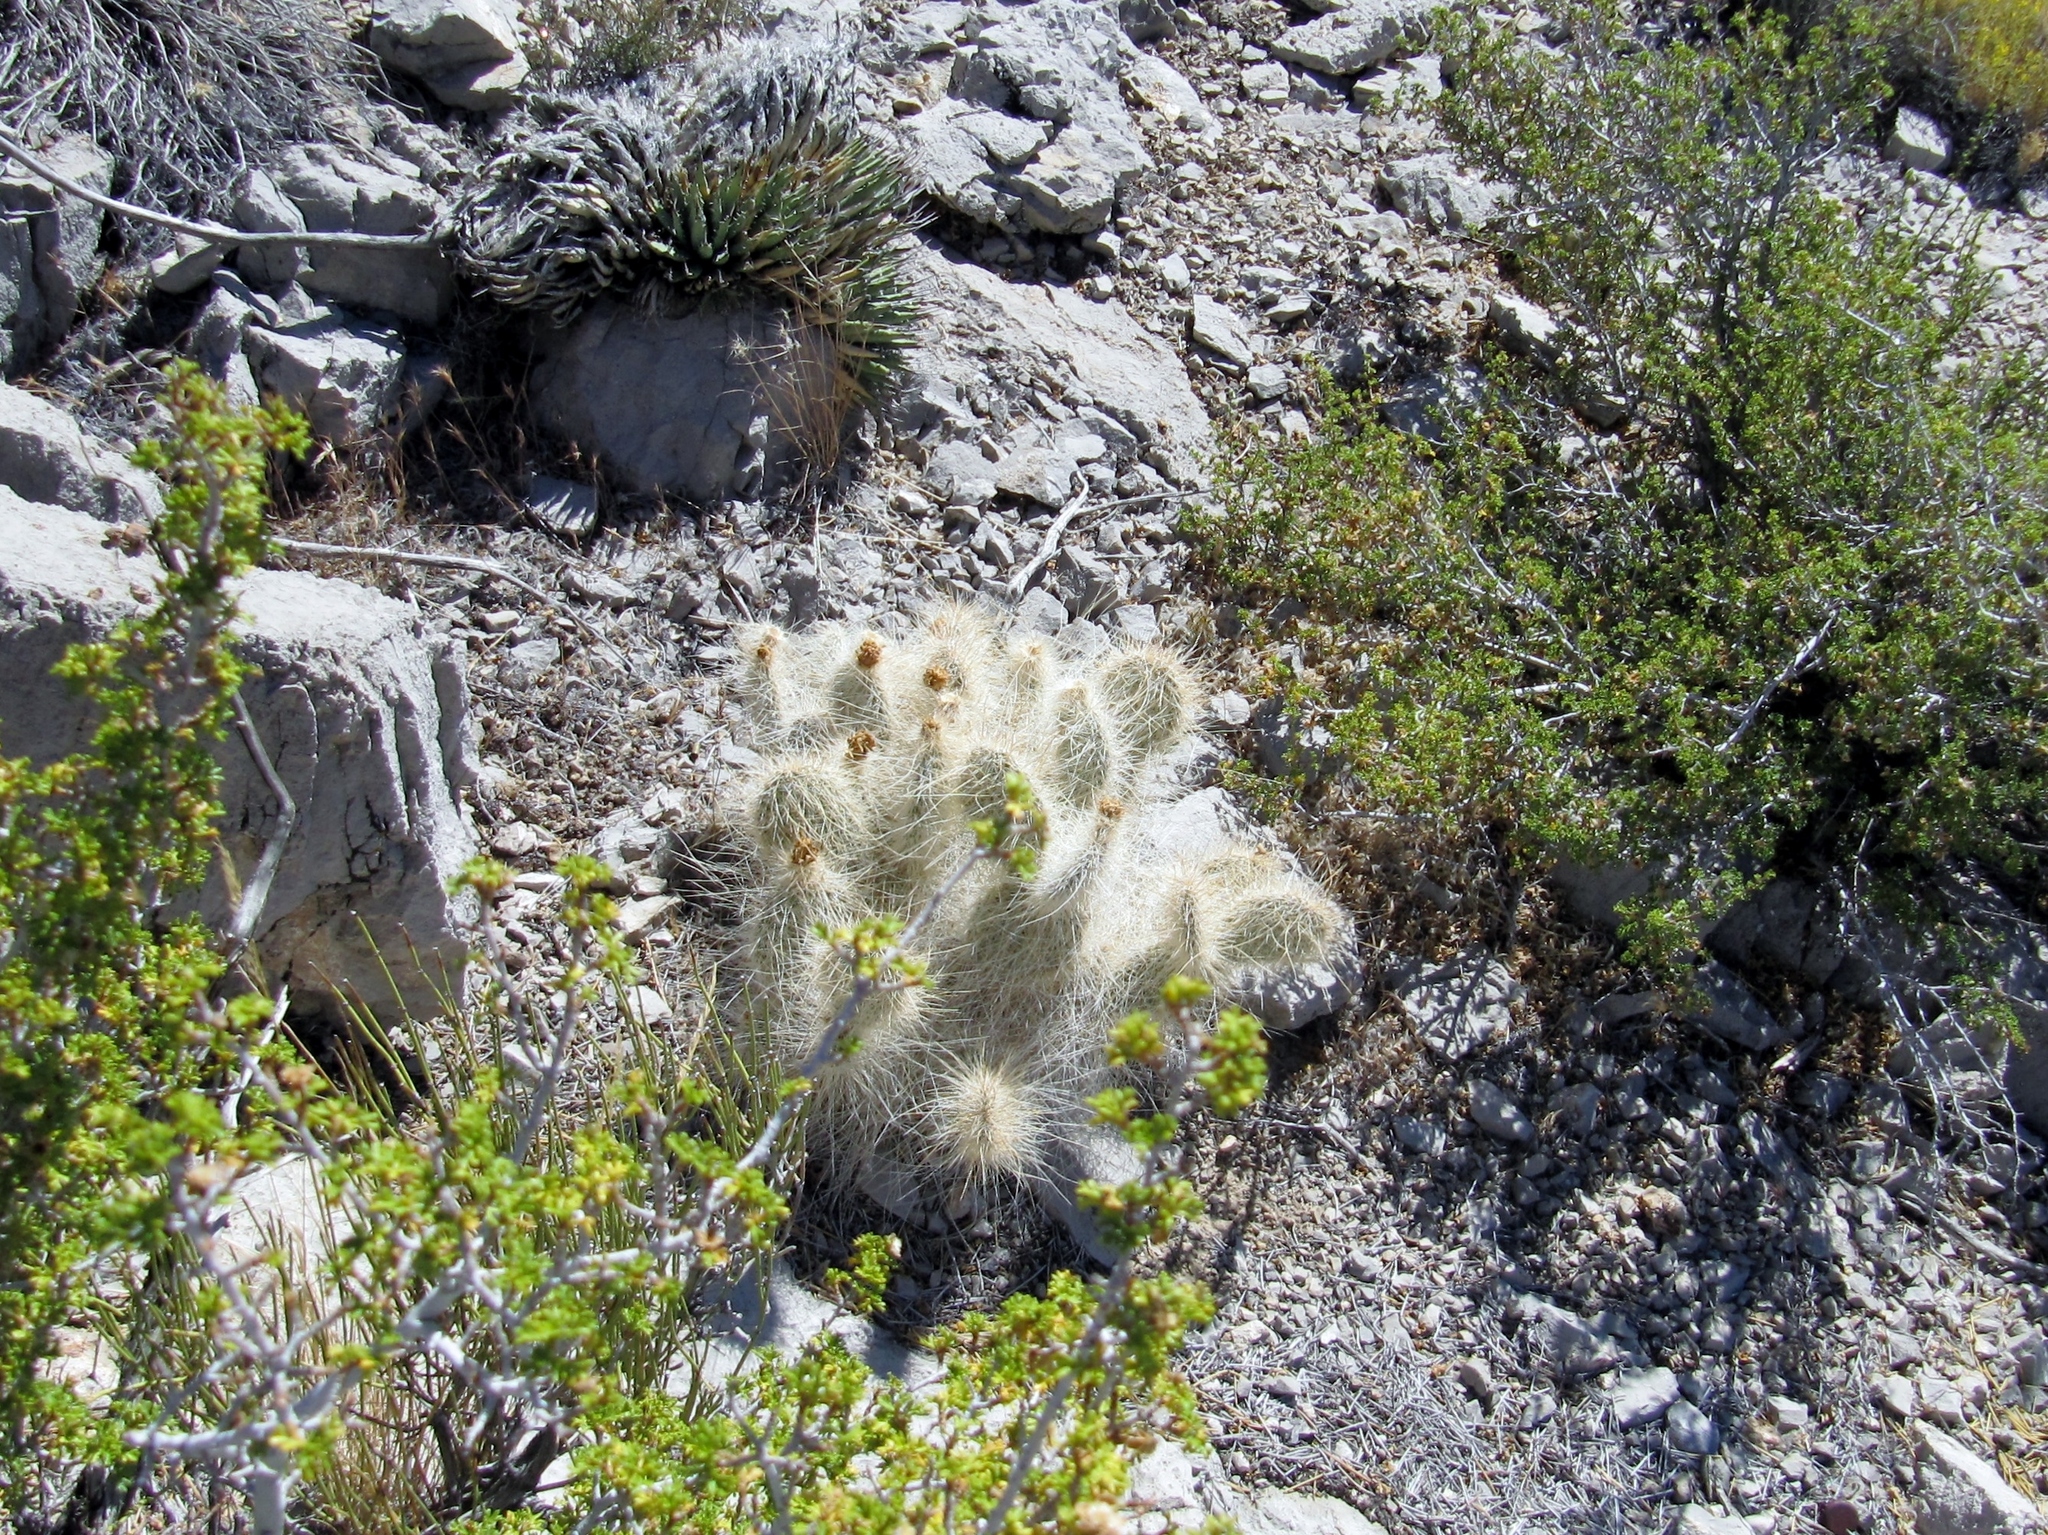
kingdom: Plantae
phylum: Tracheophyta
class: Magnoliopsida
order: Caryophyllales
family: Cactaceae
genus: Opuntia
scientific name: Opuntia polyacantha
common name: Plains prickly-pear
